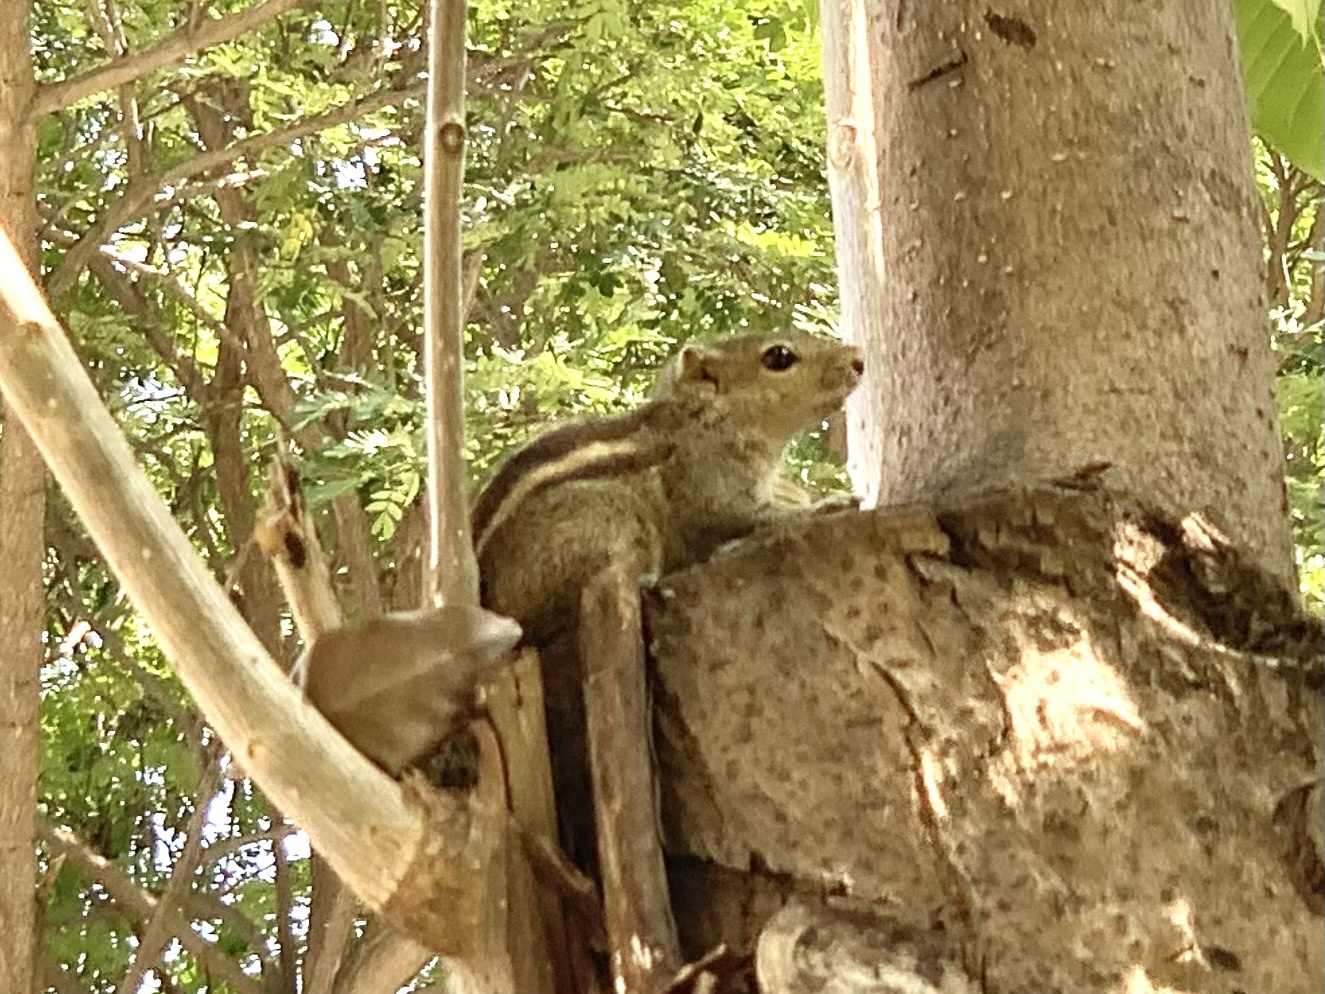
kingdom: Animalia
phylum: Chordata
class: Mammalia
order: Rodentia
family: Sciuridae
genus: Funambulus
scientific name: Funambulus palmarum
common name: Indian palm squirrel
